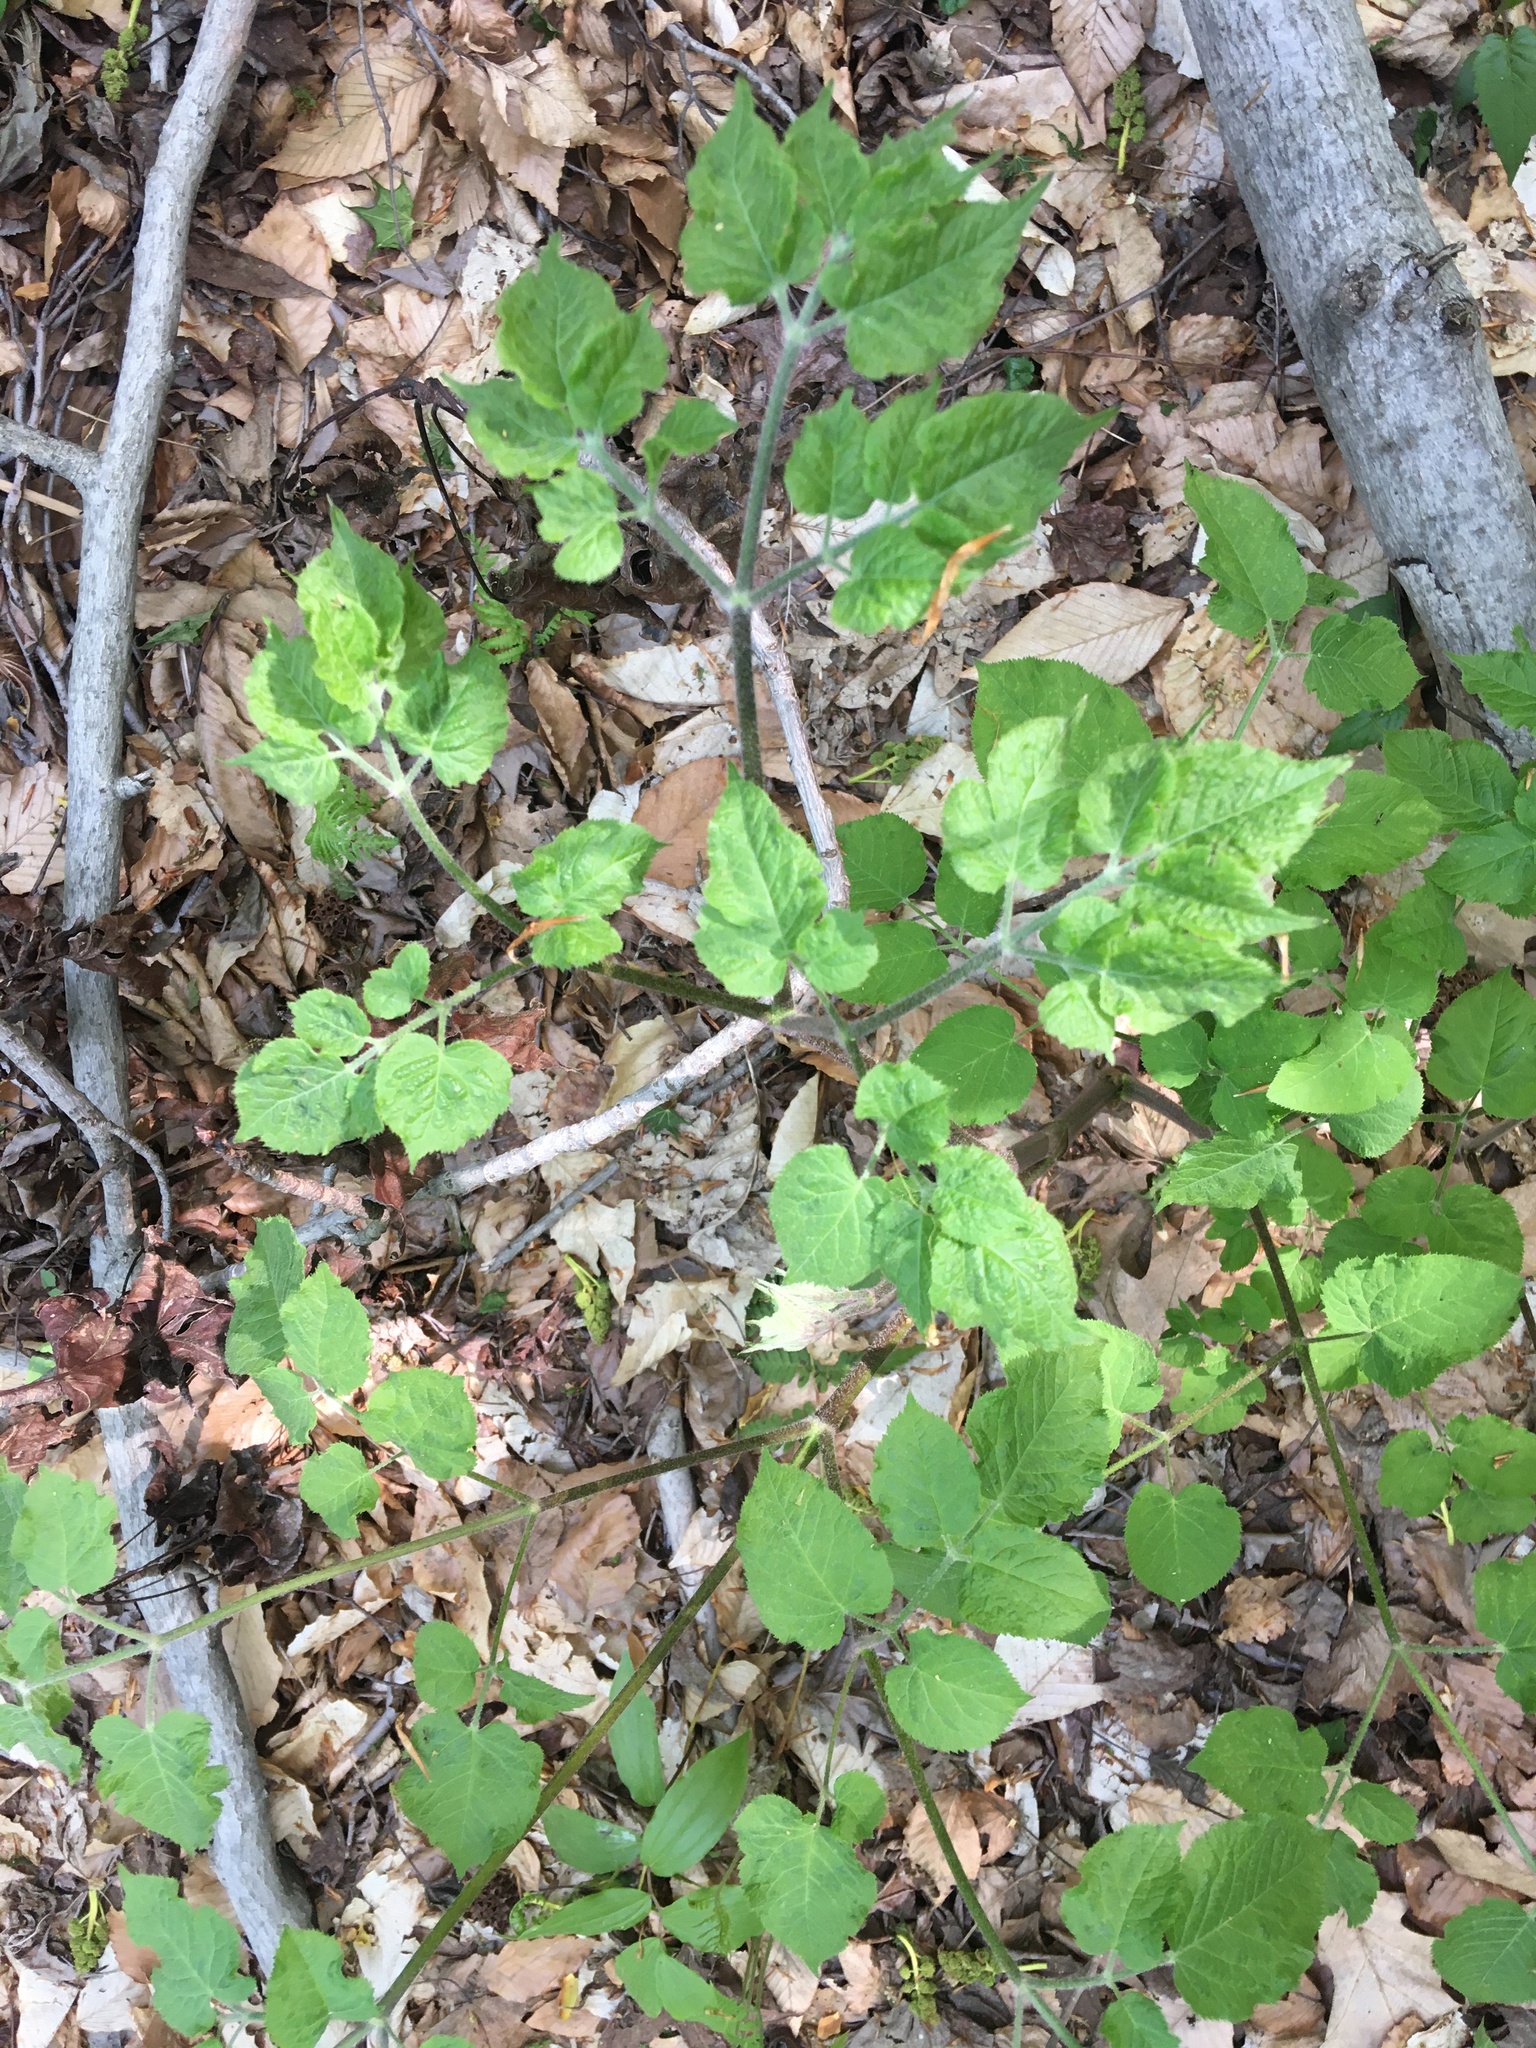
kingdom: Plantae
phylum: Tracheophyta
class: Magnoliopsida
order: Apiales
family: Araliaceae
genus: Aralia
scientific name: Aralia nudicaulis
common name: Wild sarsaparilla
